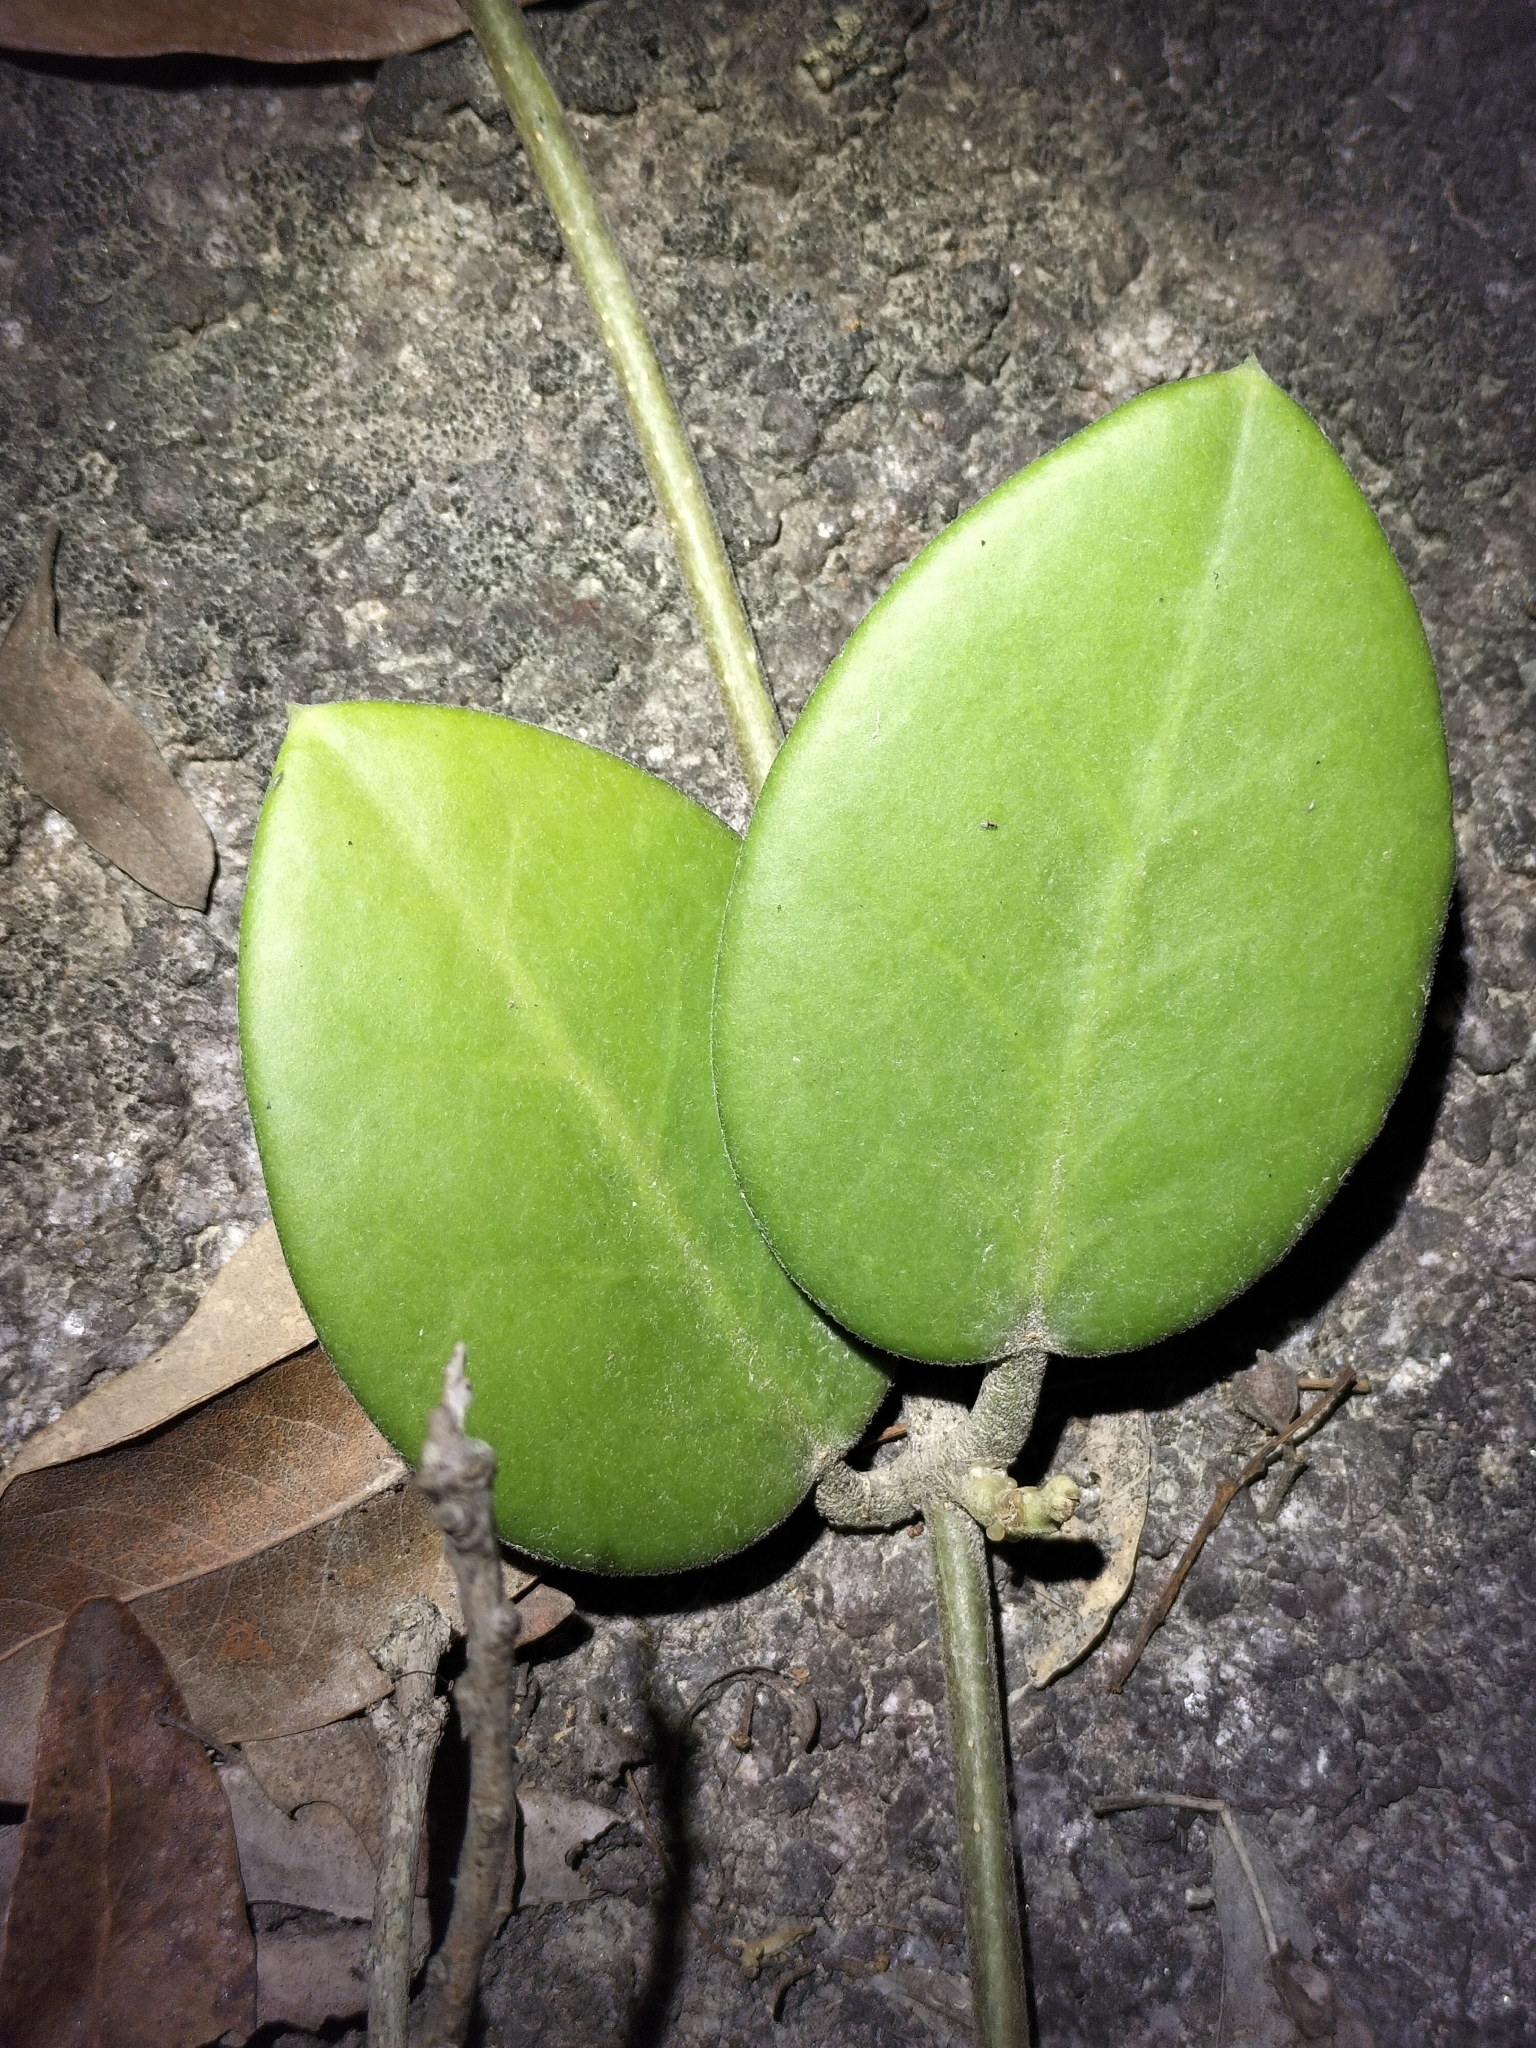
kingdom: Plantae
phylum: Tracheophyta
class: Magnoliopsida
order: Gentianales
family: Apocynaceae
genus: Hoya
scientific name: Hoya australis
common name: Wax flower
